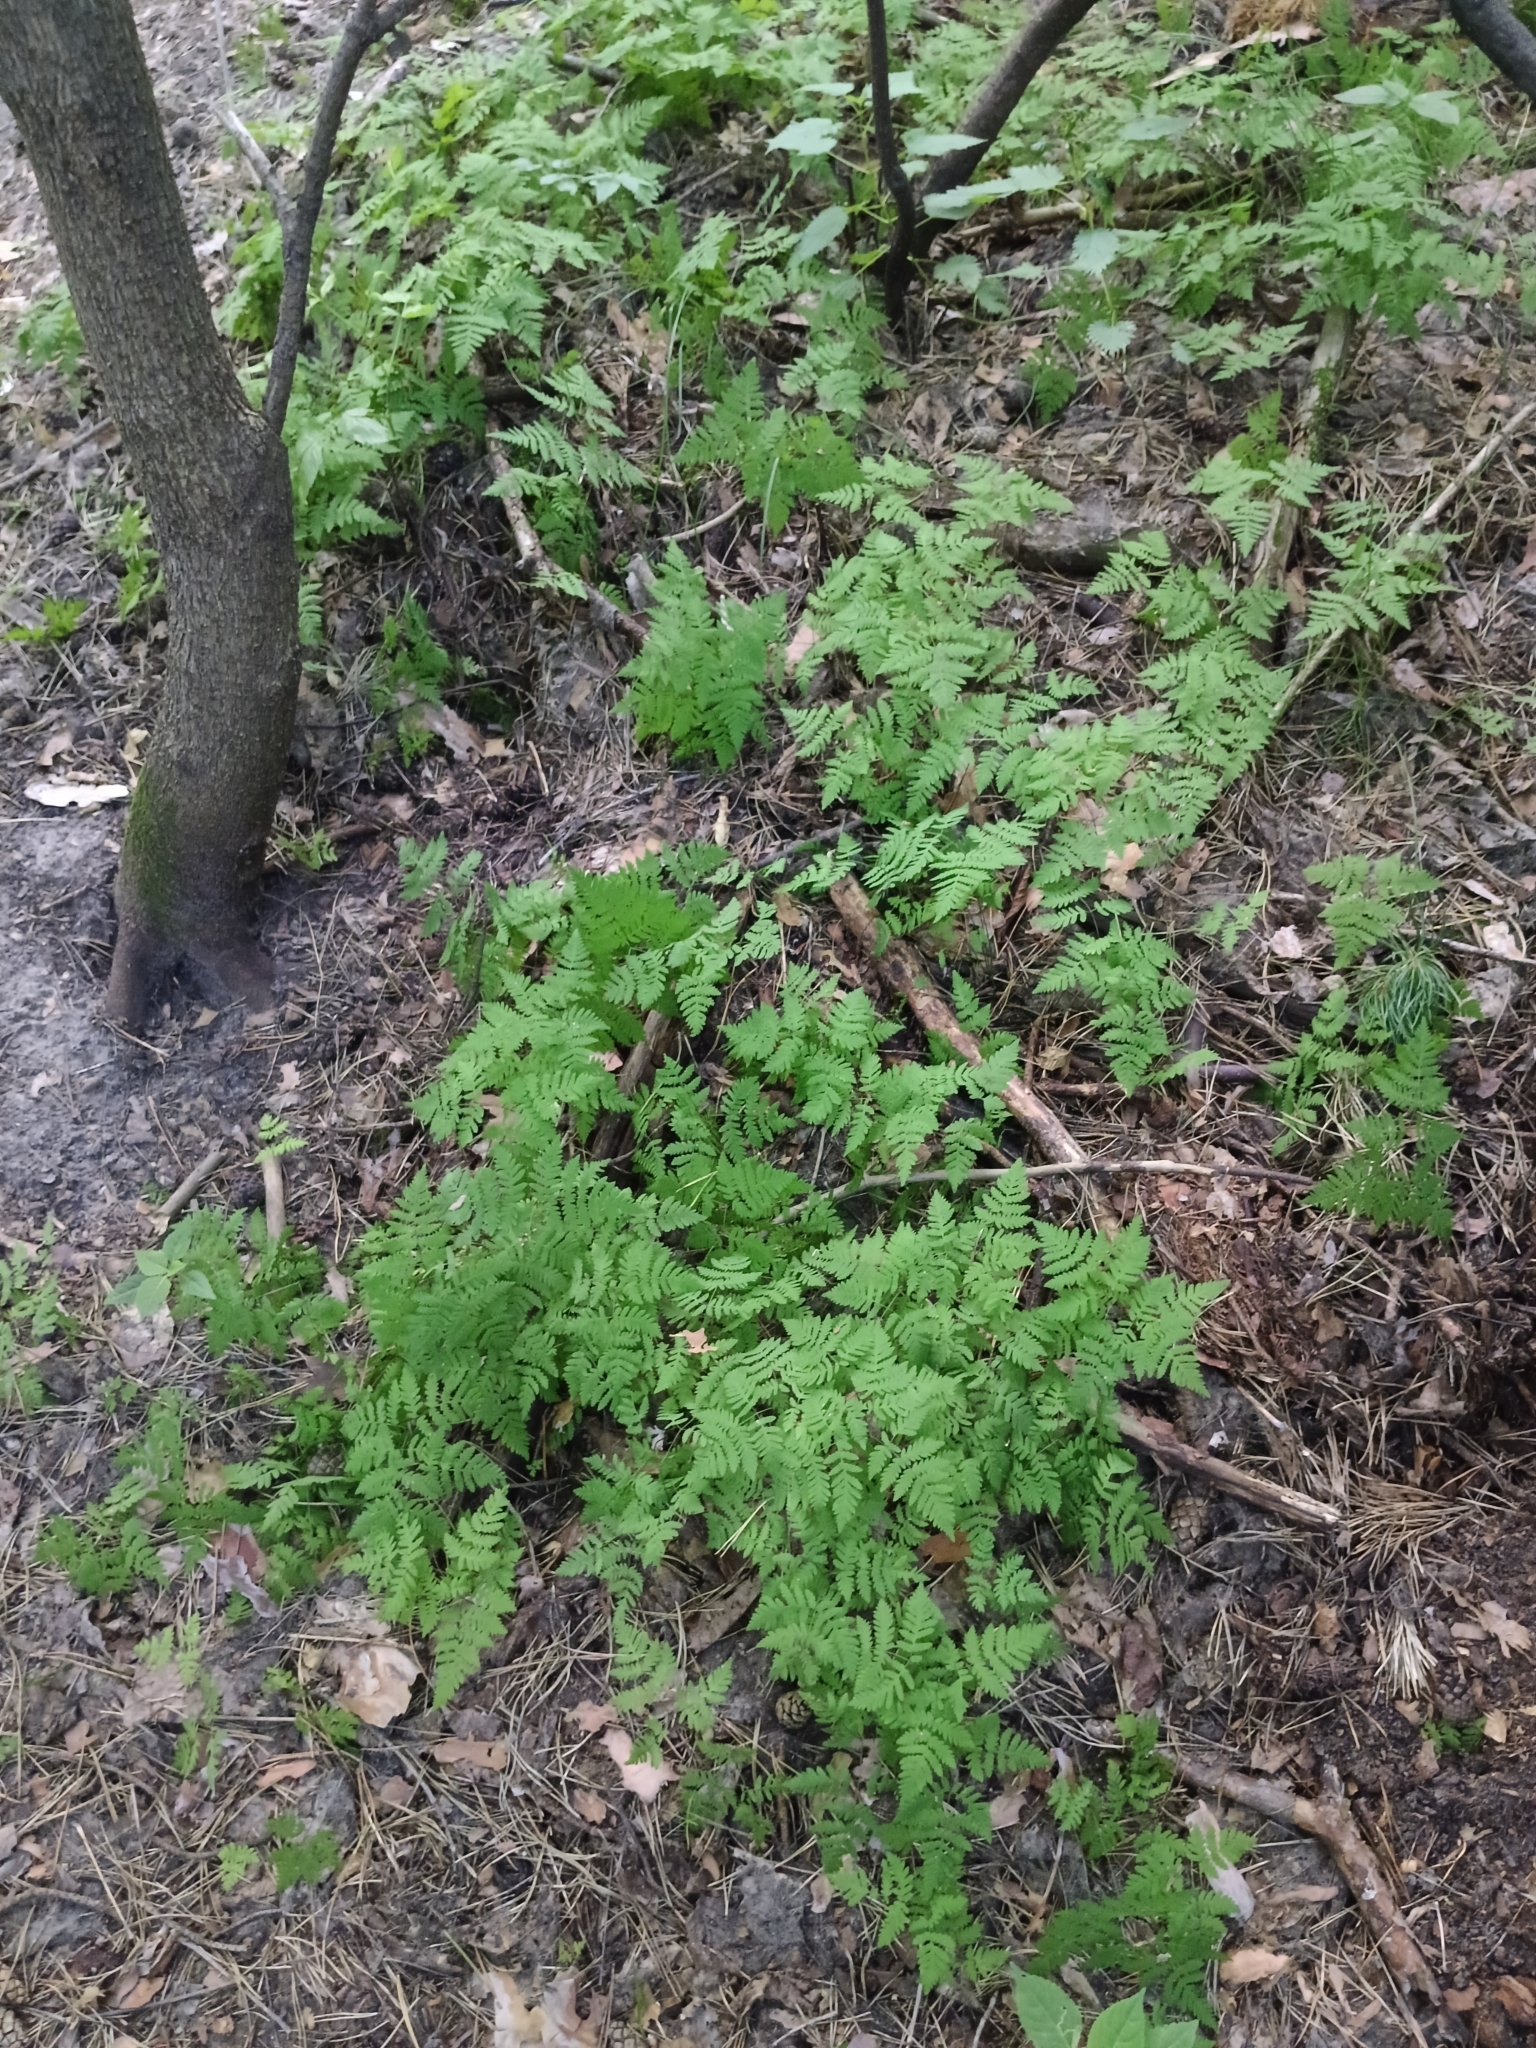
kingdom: Plantae
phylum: Tracheophyta
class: Polypodiopsida
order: Polypodiales
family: Cystopteridaceae
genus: Gymnocarpium
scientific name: Gymnocarpium dryopteris
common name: Oak fern
